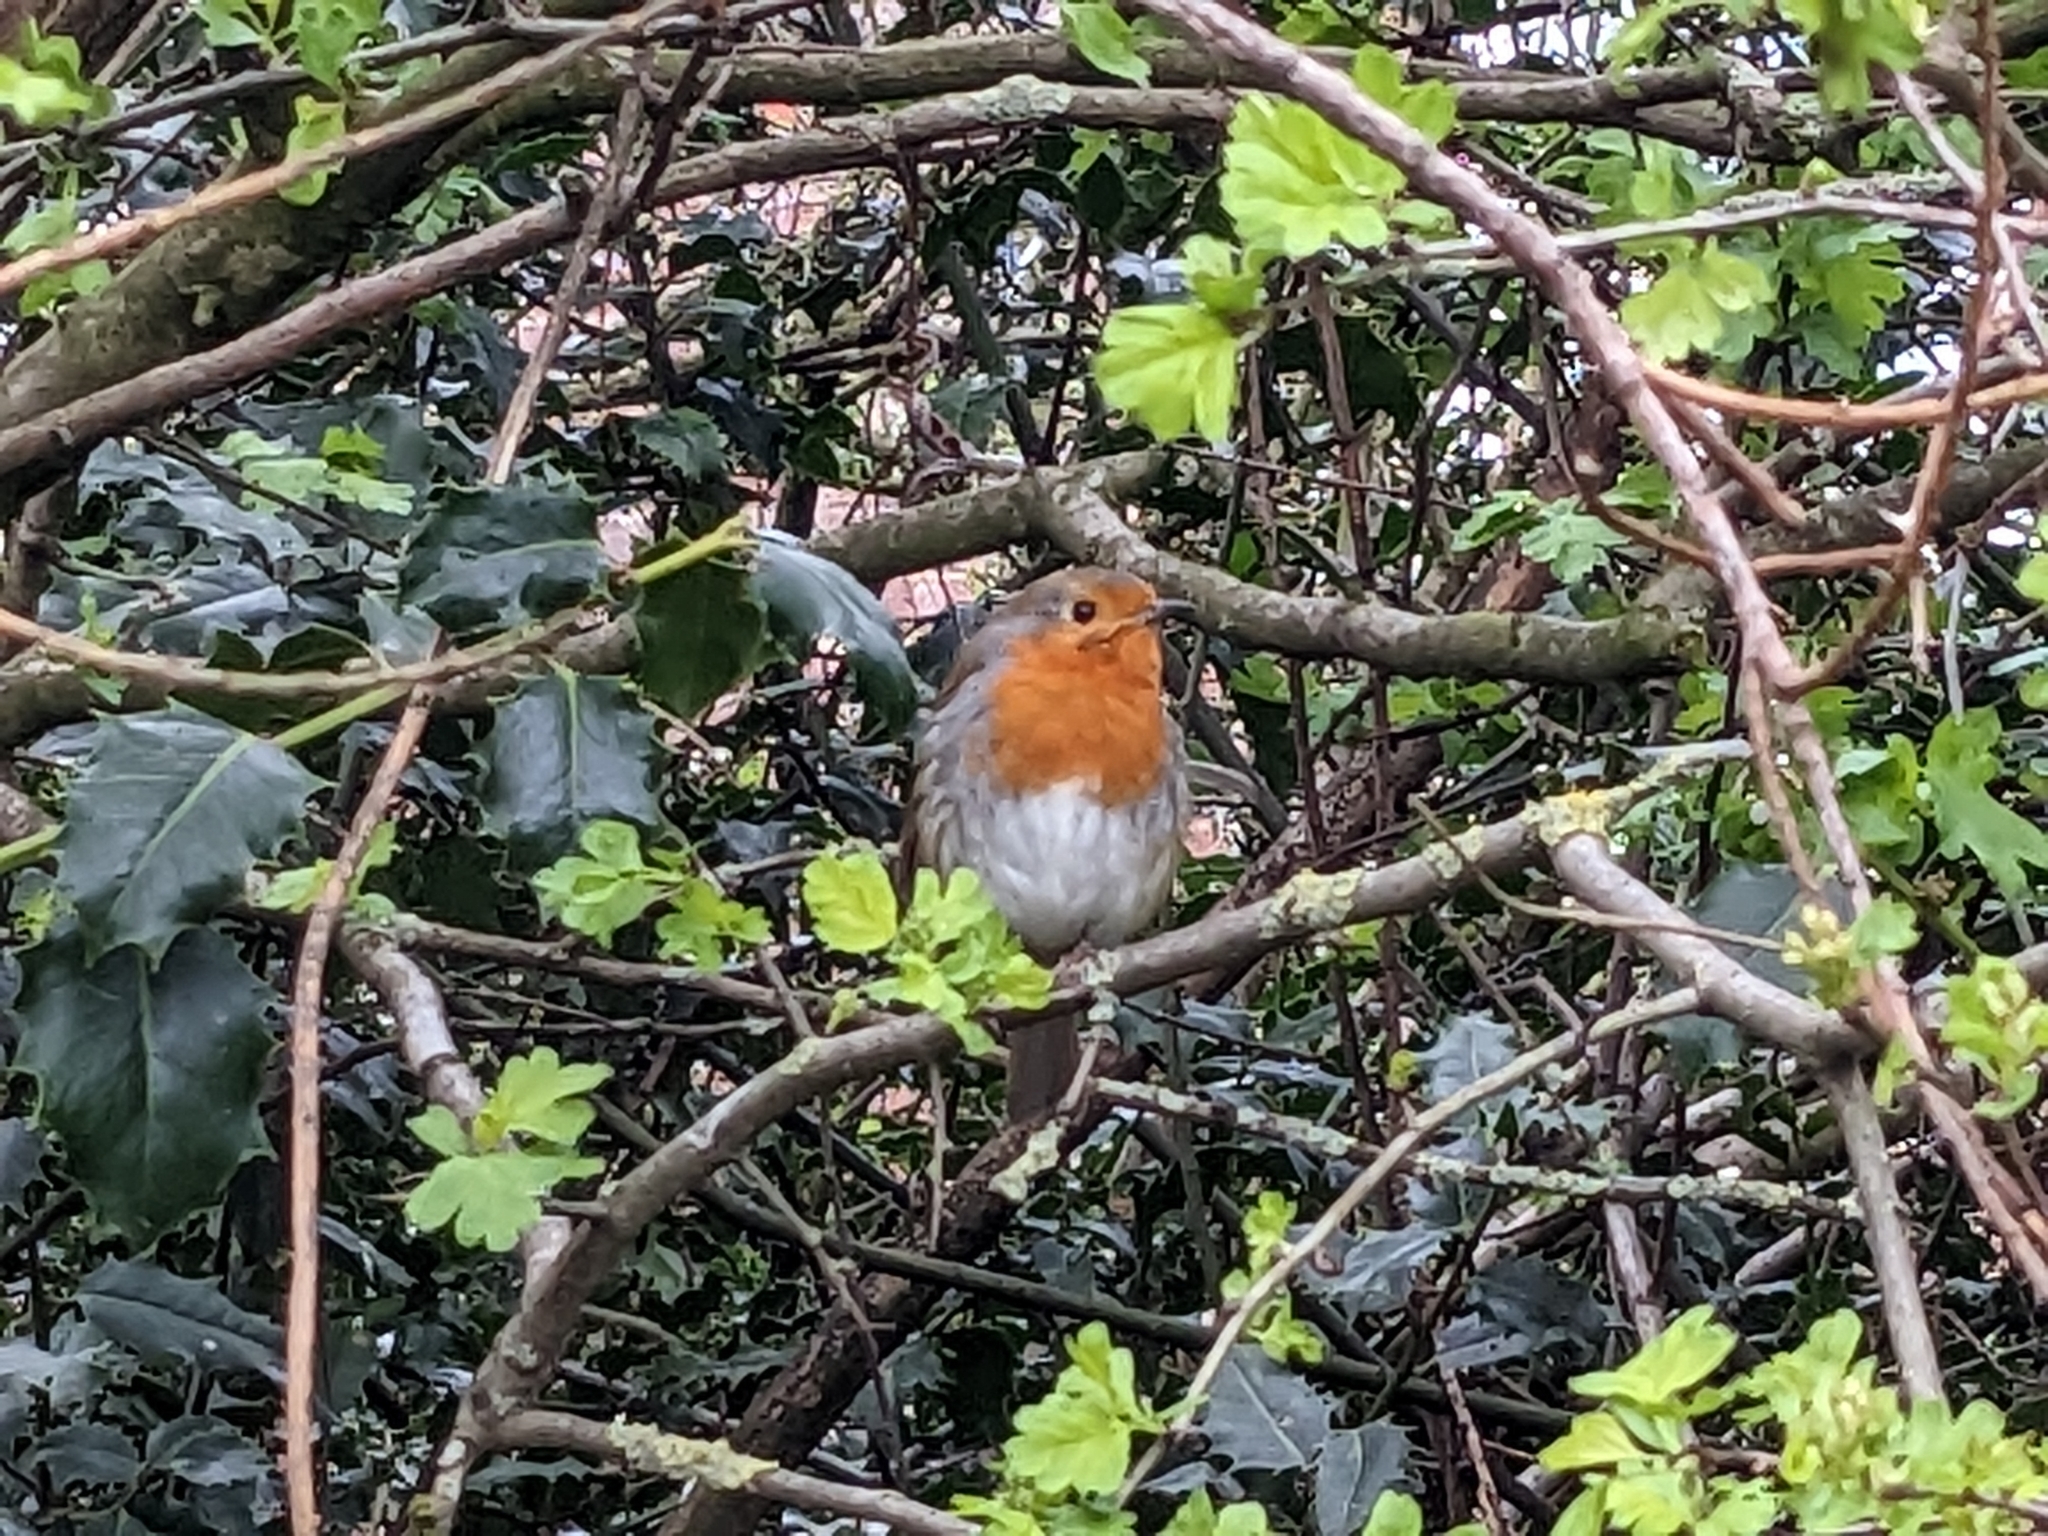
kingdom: Animalia
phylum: Chordata
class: Aves
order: Passeriformes
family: Muscicapidae
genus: Erithacus
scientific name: Erithacus rubecula
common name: European robin
